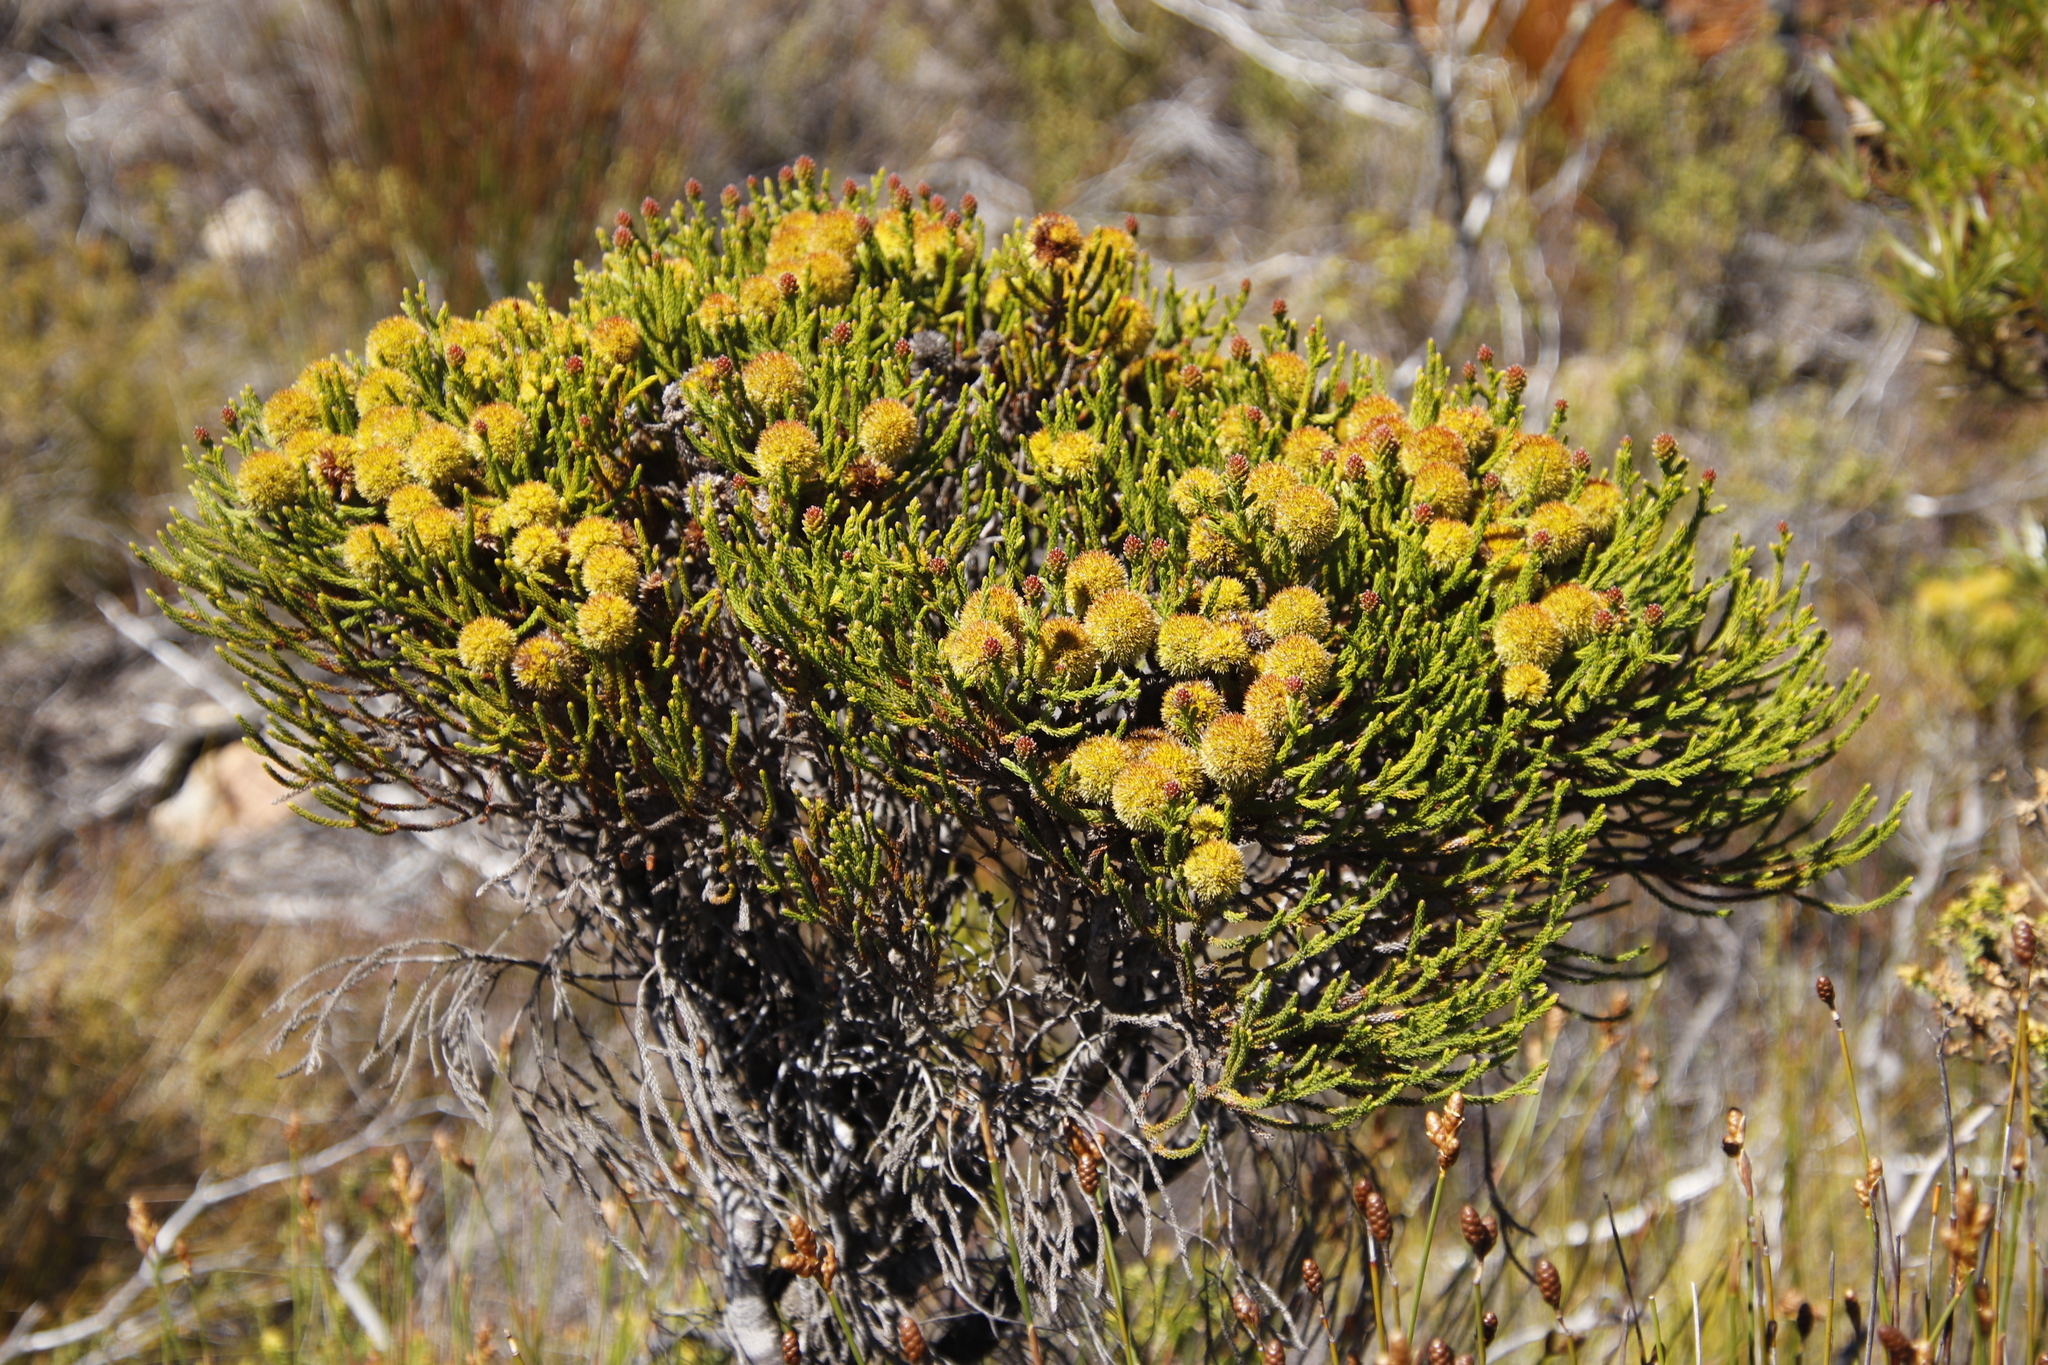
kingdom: Plantae
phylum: Tracheophyta
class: Magnoliopsida
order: Bruniales
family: Bruniaceae
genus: Brunia
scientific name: Brunia fragarioides
